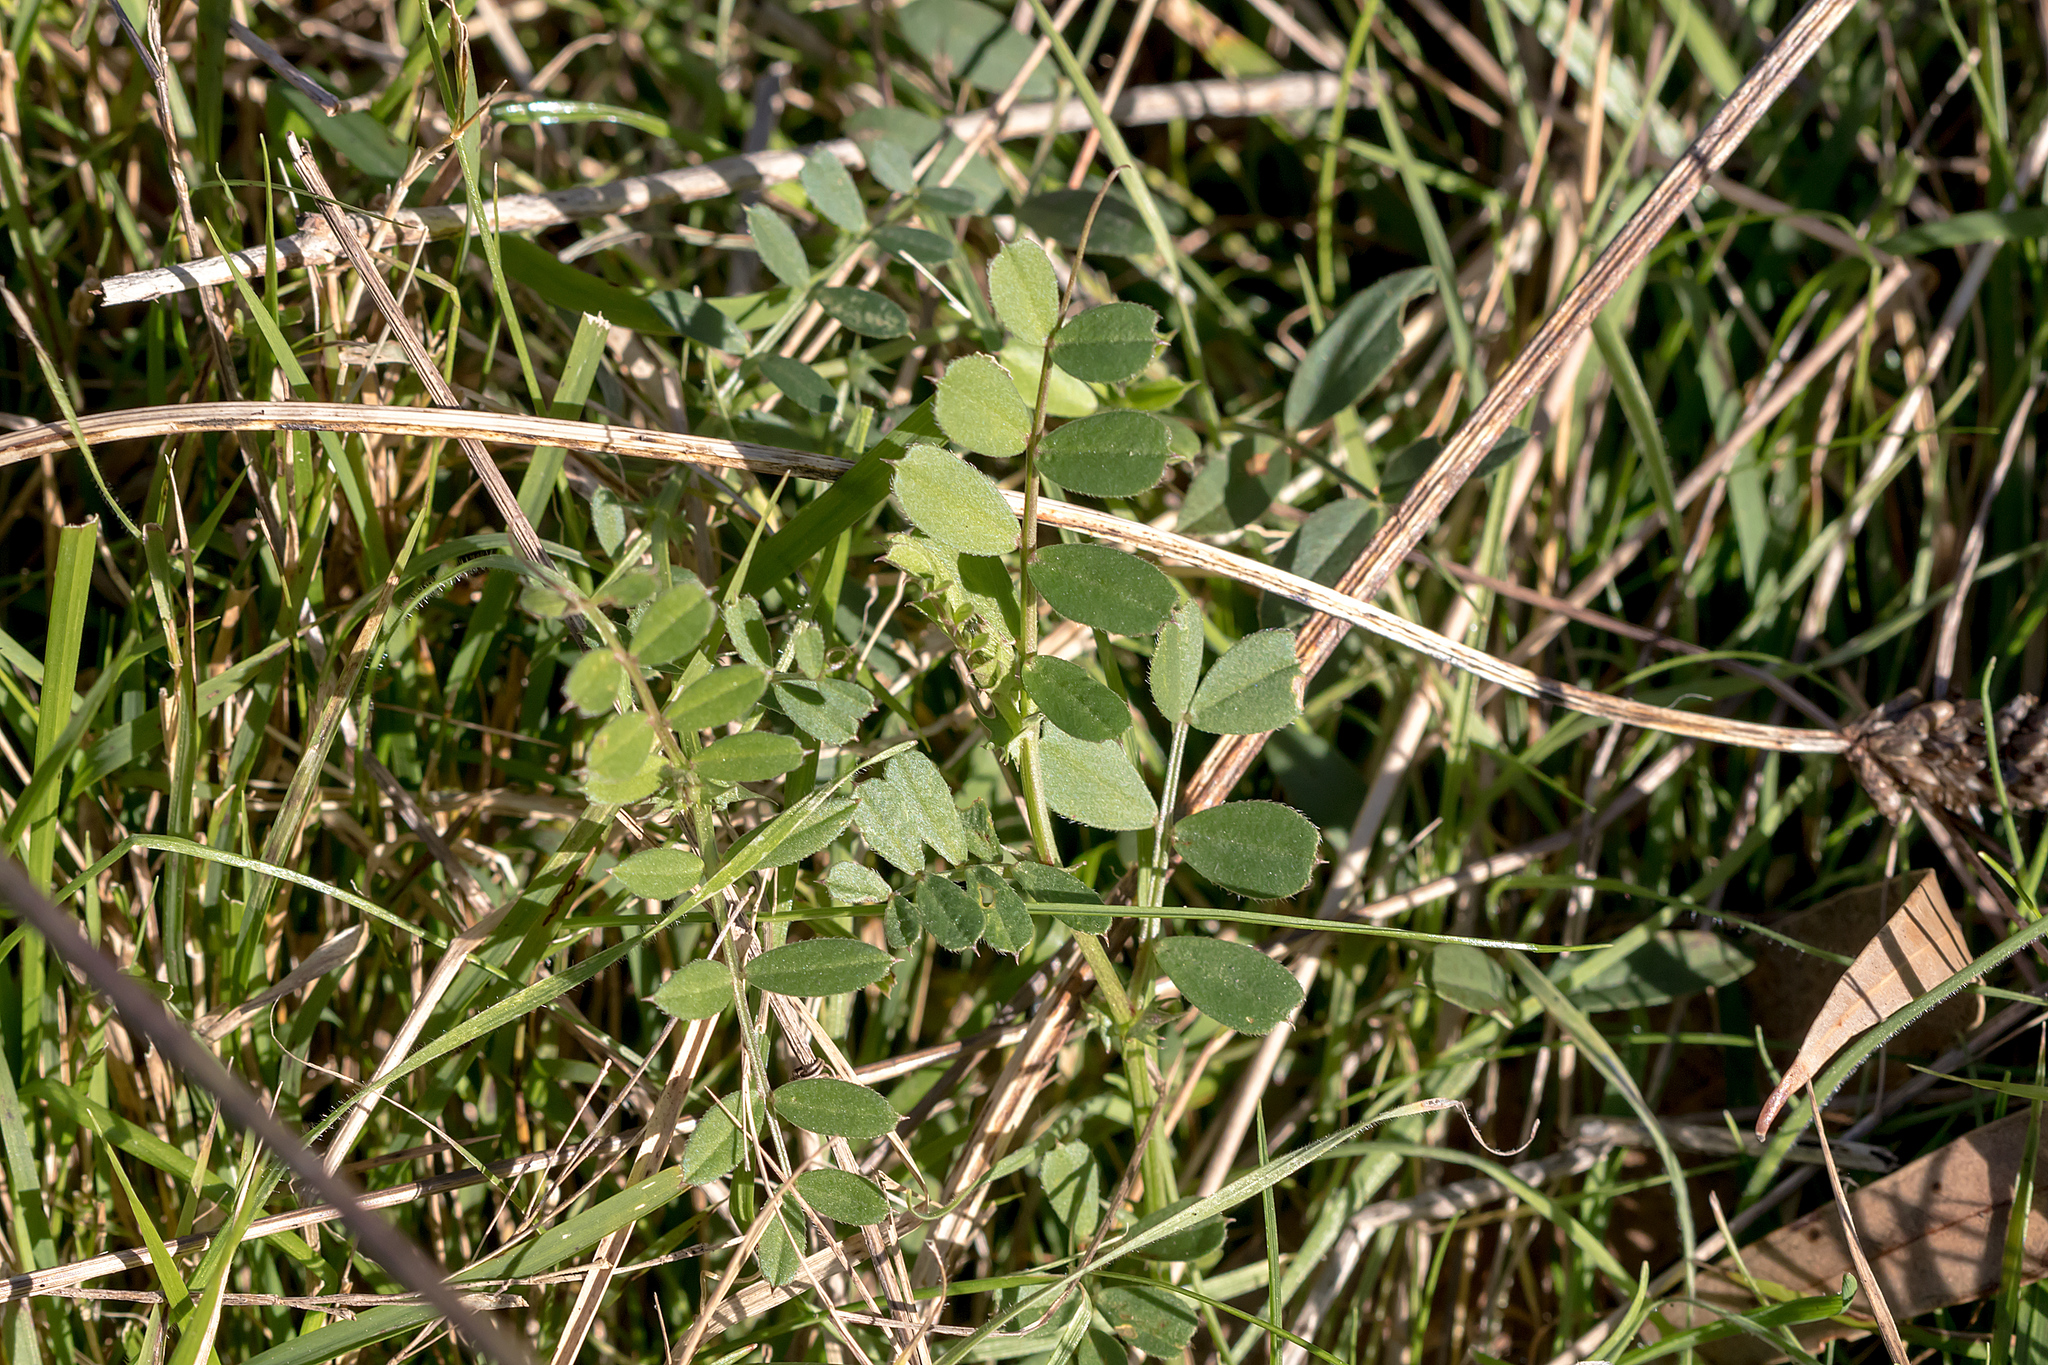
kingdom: Plantae
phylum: Tracheophyta
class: Magnoliopsida
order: Fabales
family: Fabaceae
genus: Vicia
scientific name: Vicia sativa
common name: Garden vetch
